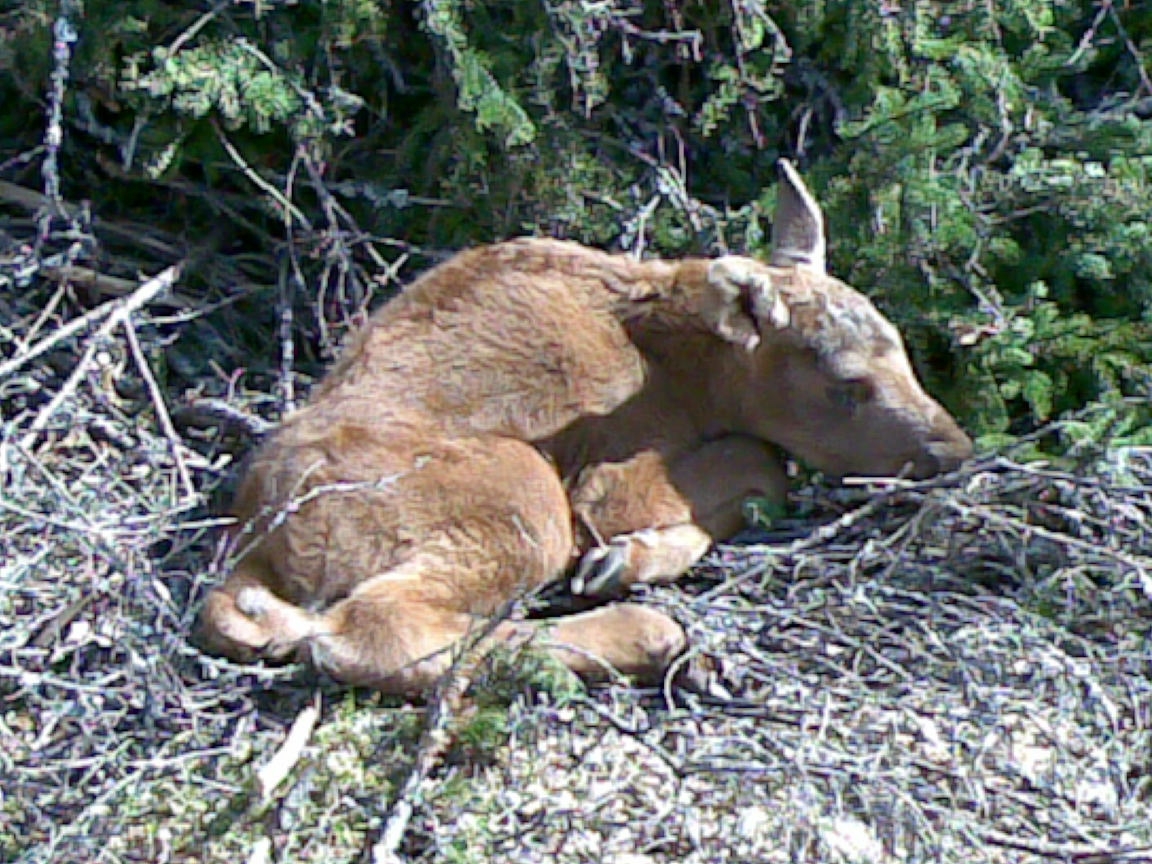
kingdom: Animalia
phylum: Chordata
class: Mammalia
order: Artiodactyla
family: Cervidae
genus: Alces
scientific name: Alces alces
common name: Moose
